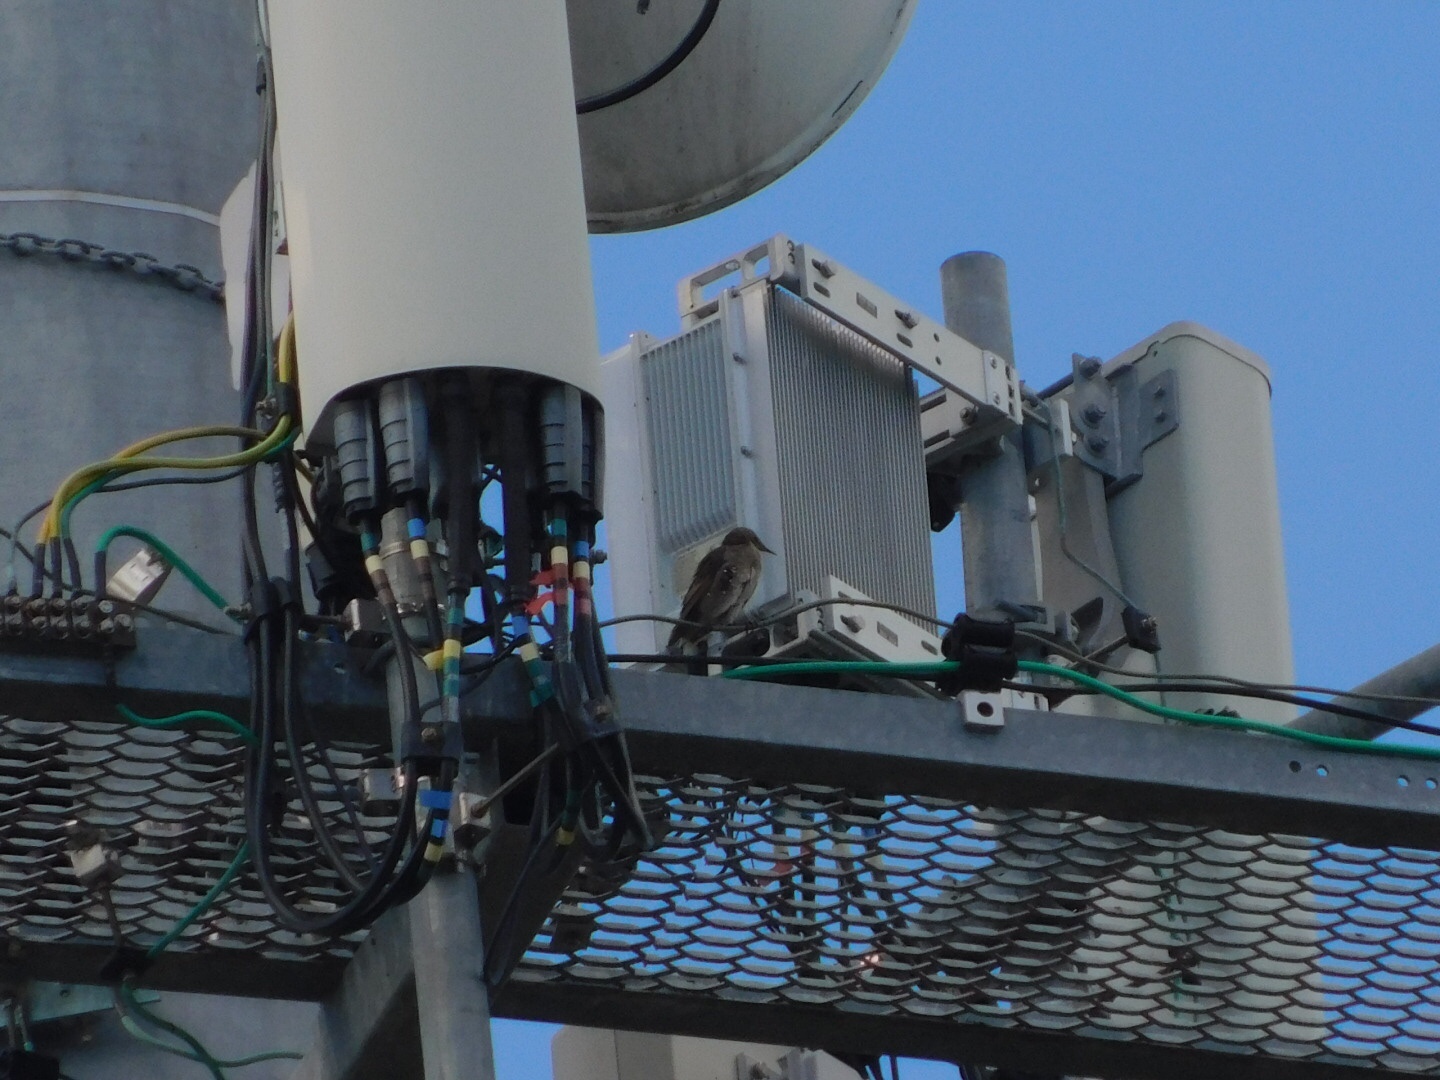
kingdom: Animalia
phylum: Chordata
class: Aves
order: Passeriformes
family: Sturnidae
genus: Sturnus
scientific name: Sturnus vulgaris
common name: Common starling
